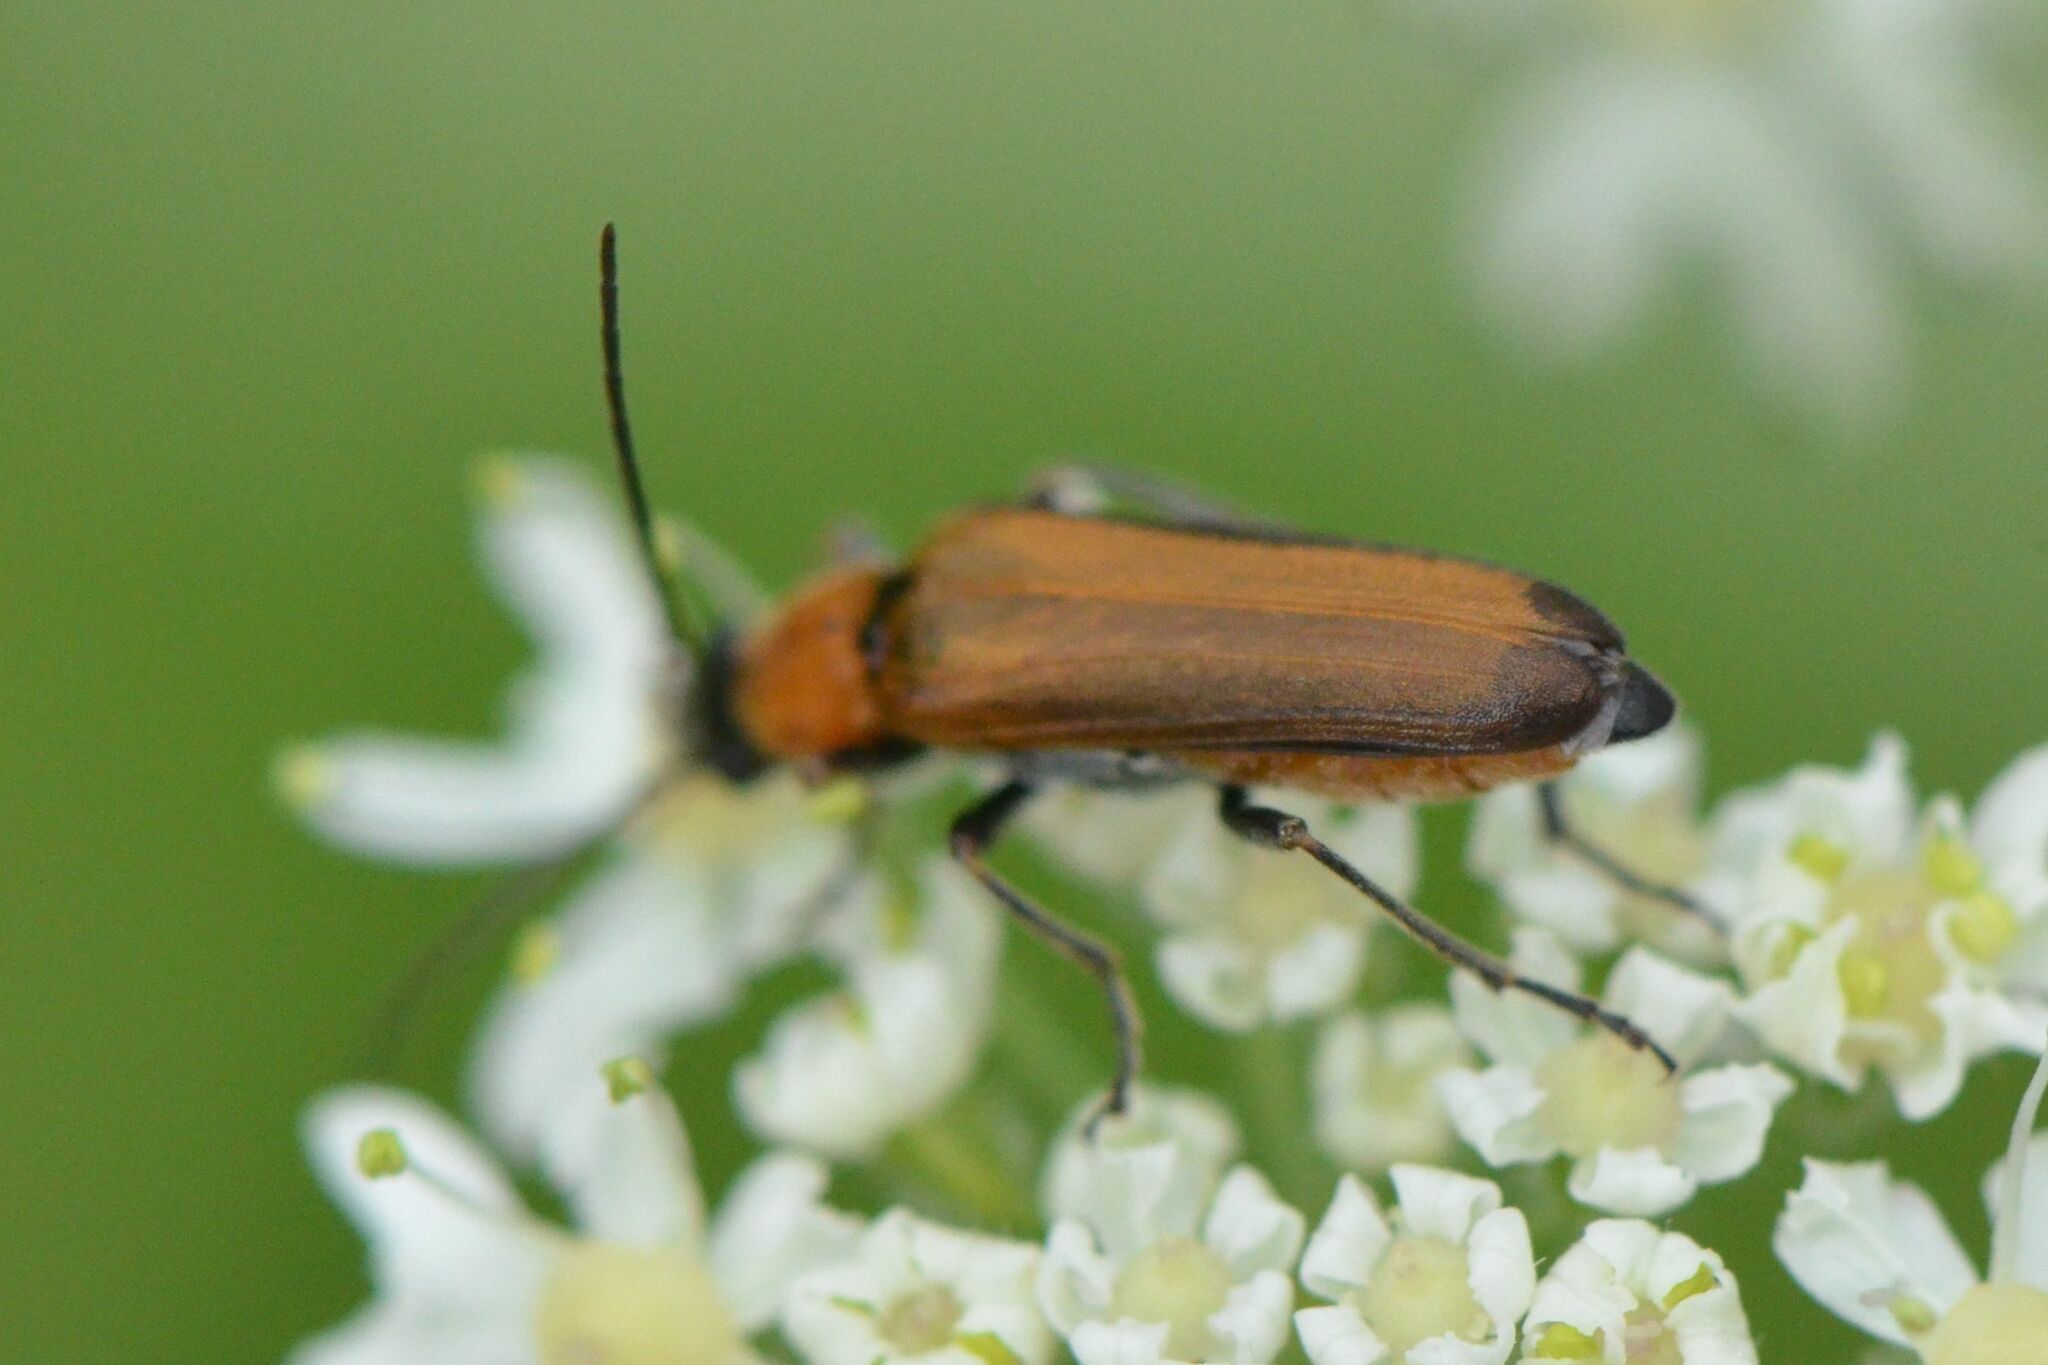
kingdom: Animalia
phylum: Arthropoda
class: Insecta
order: Coleoptera
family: Oedemeridae
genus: Anogcodes
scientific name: Anogcodes rufiventris
